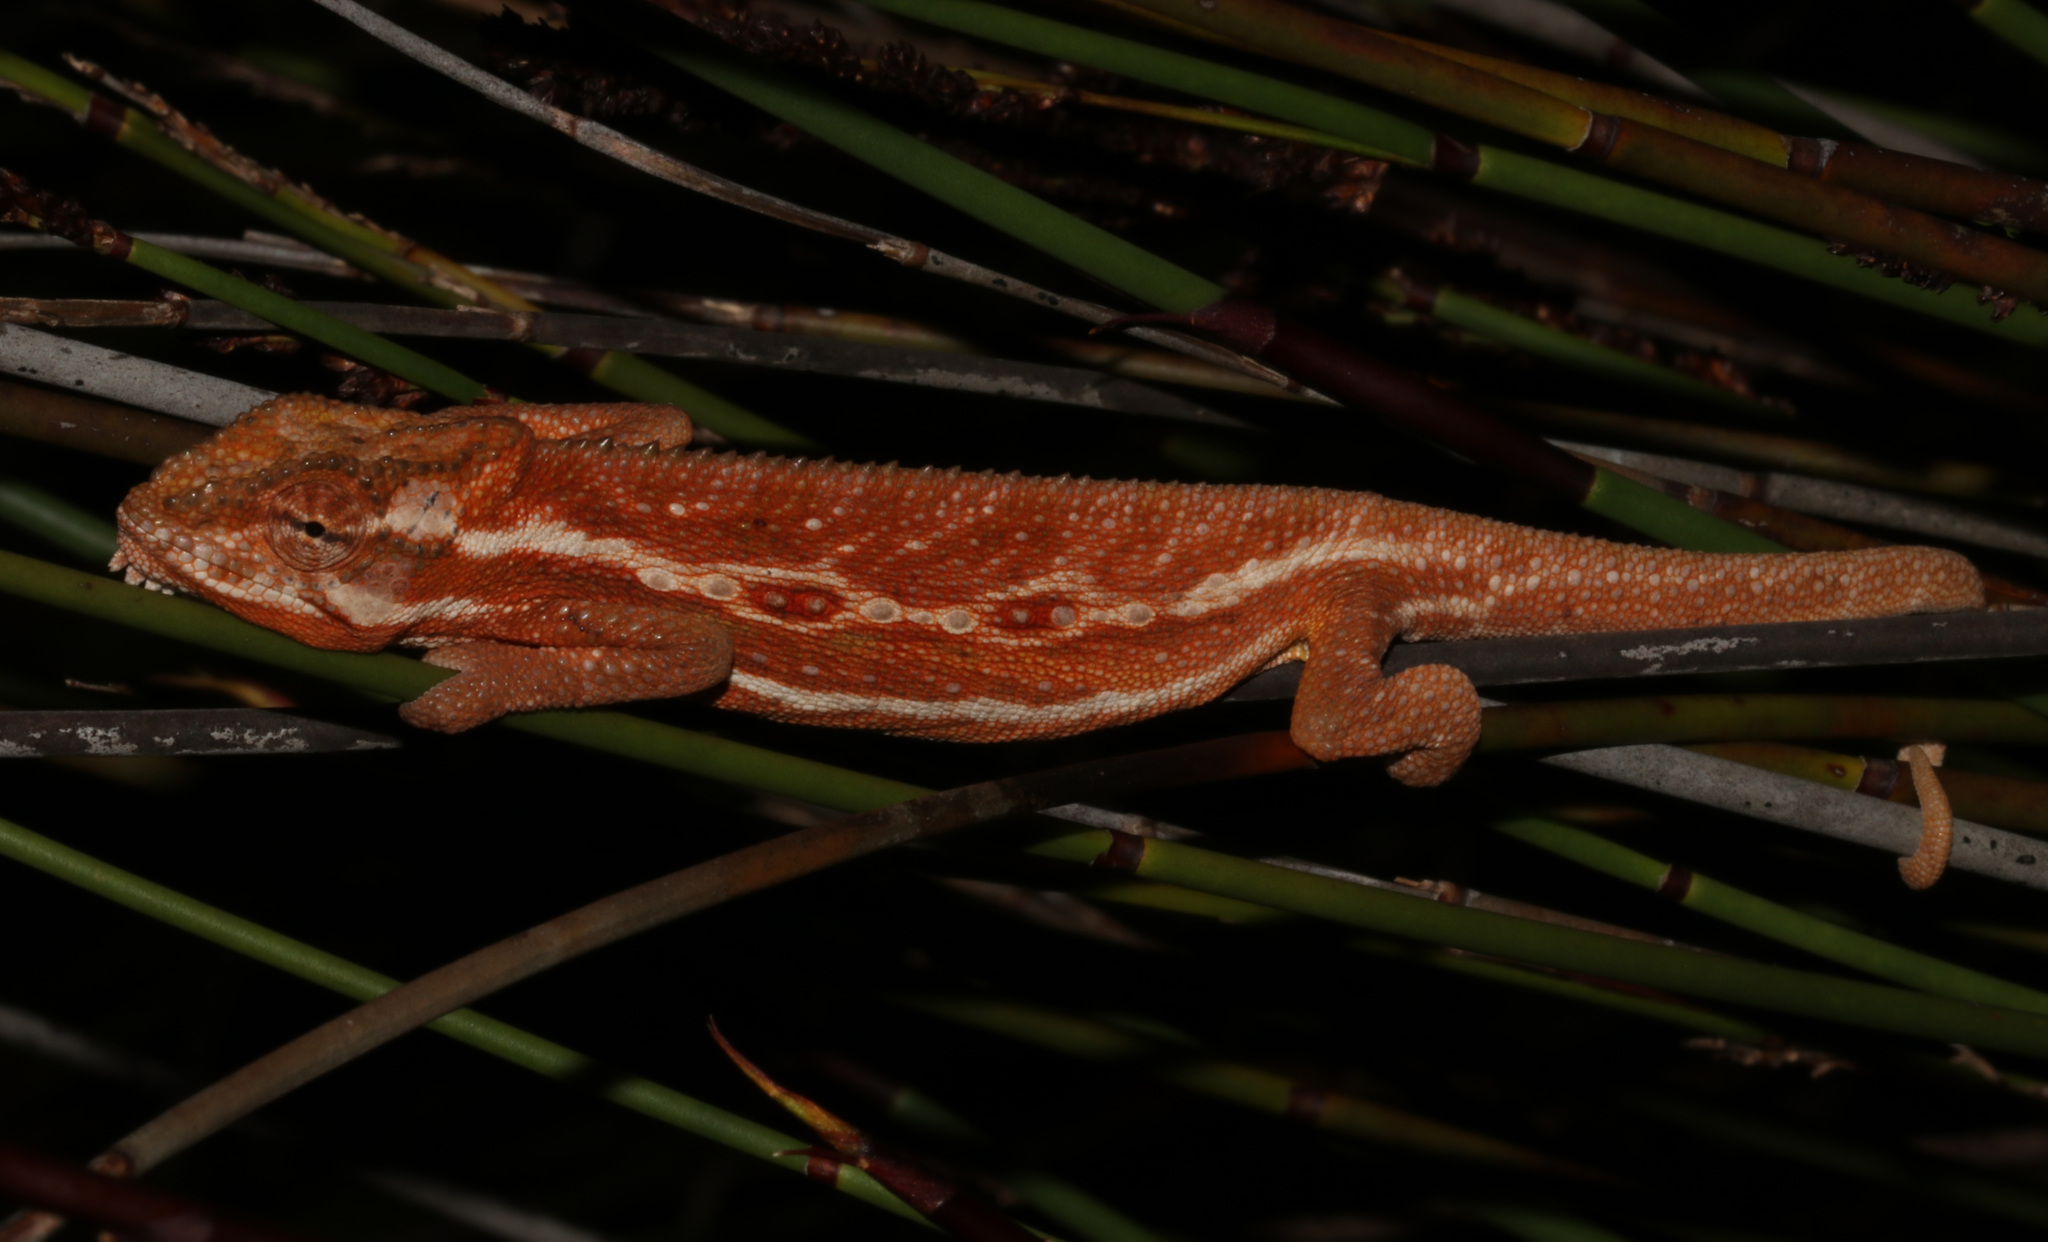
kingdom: Animalia
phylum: Chordata
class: Squamata
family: Chamaeleonidae
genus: Bradypodion
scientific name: Bradypodion pumilum
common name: Cape dwarf chameleon
